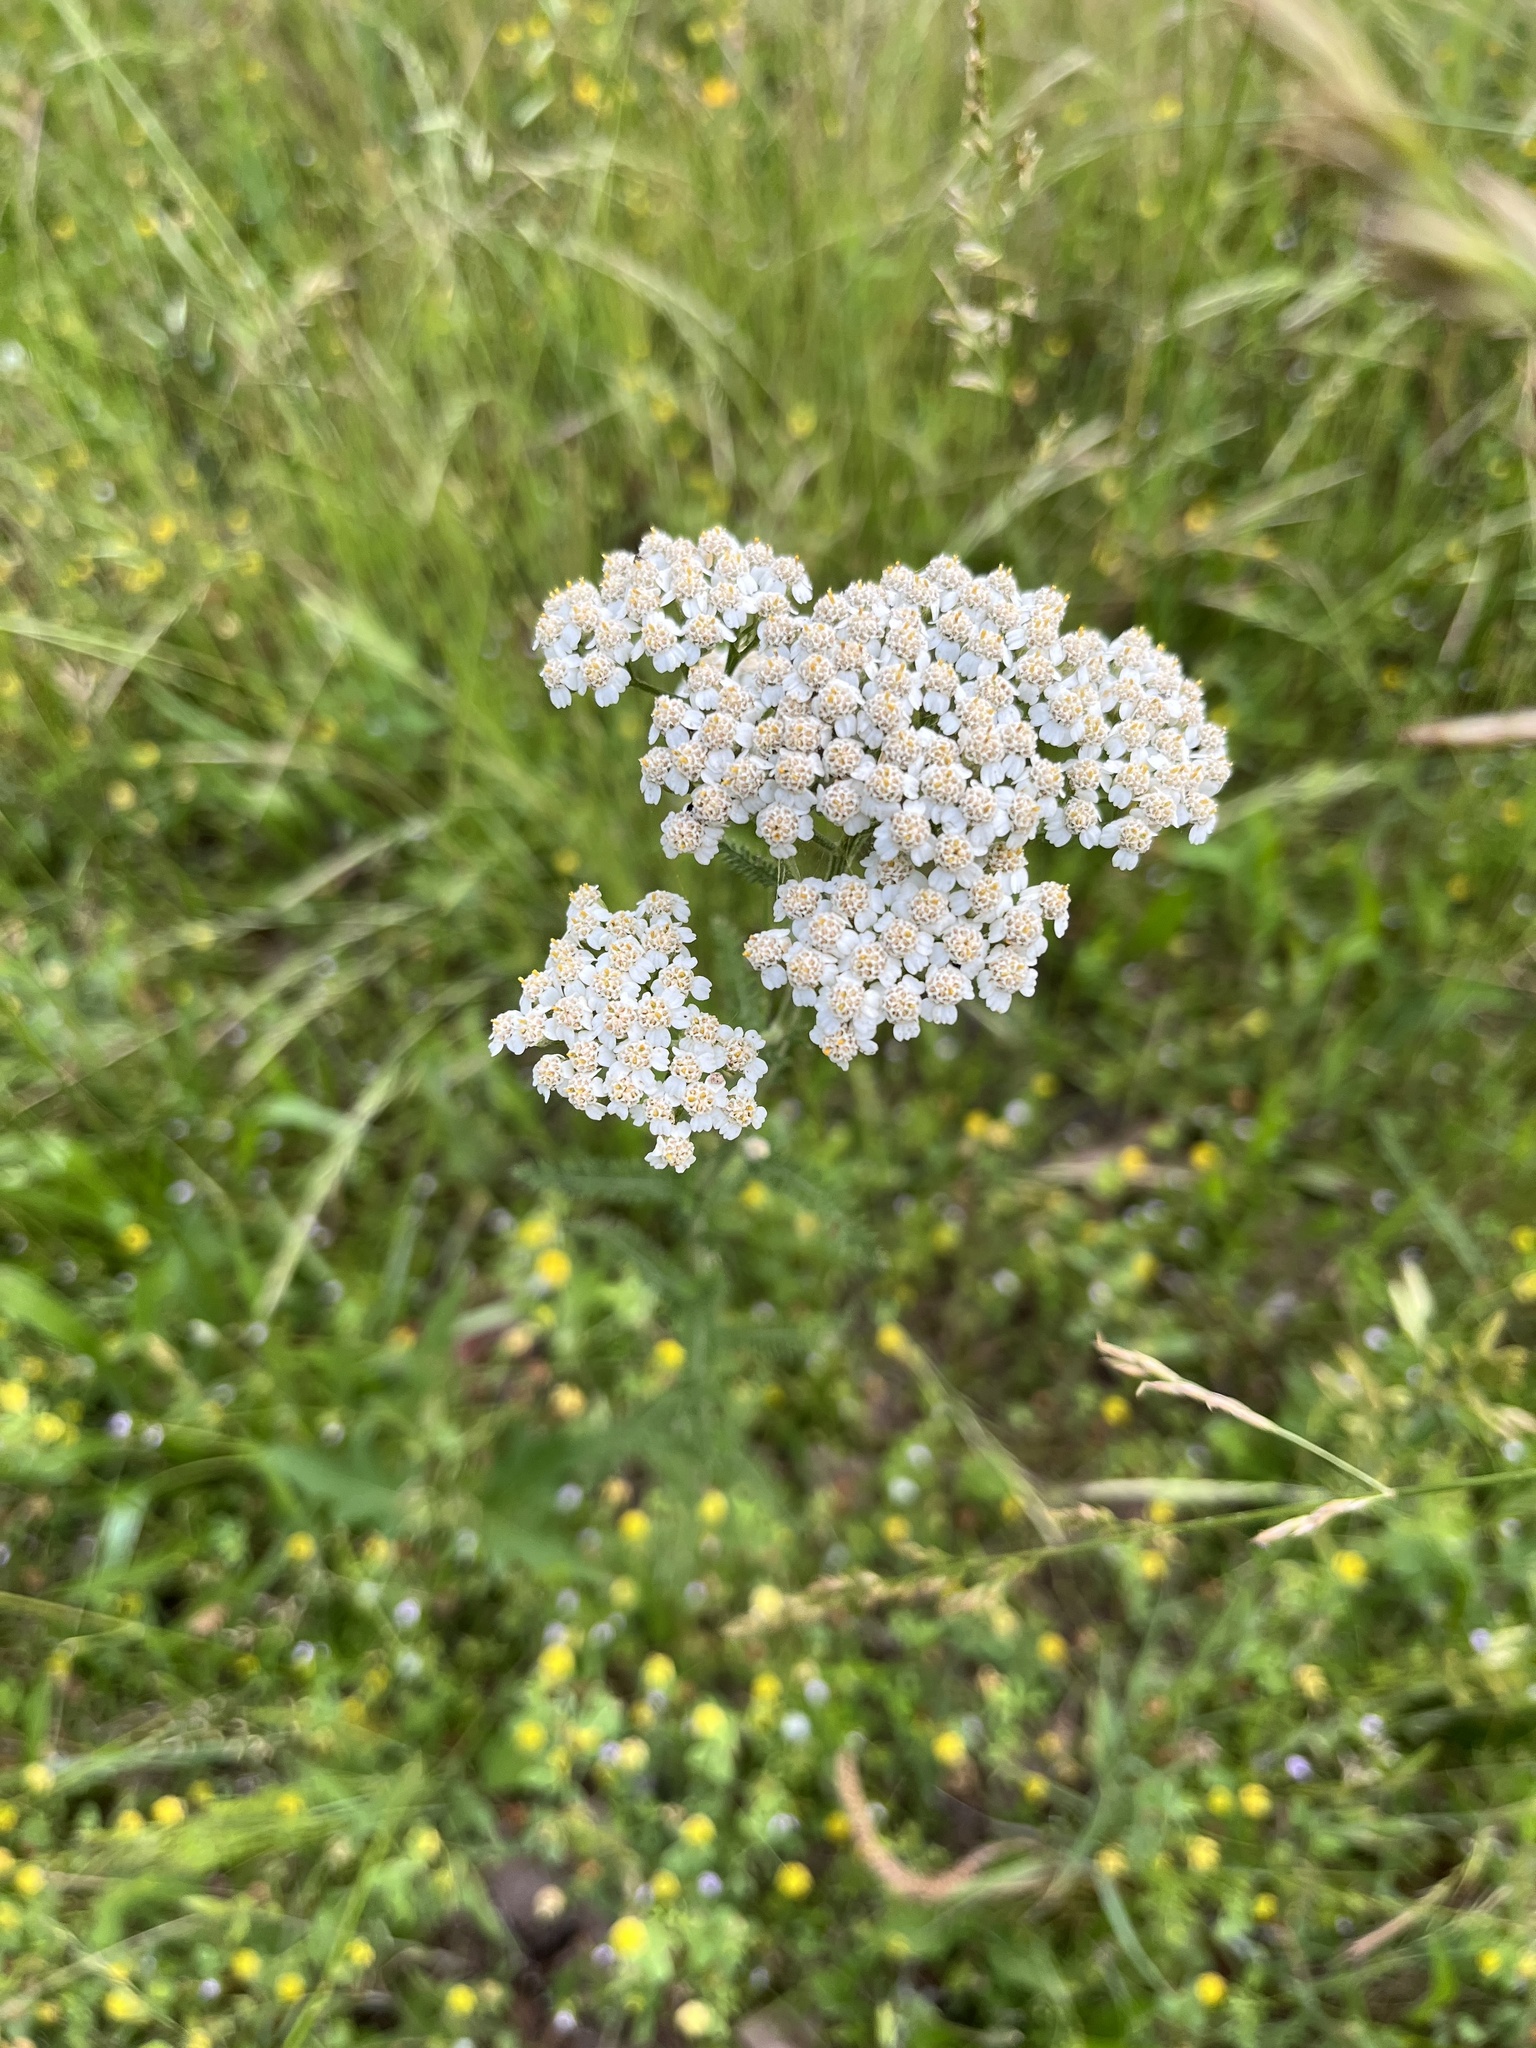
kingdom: Plantae
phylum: Tracheophyta
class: Magnoliopsida
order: Asterales
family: Asteraceae
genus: Achillea
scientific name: Achillea millefolium
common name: Yarrow
